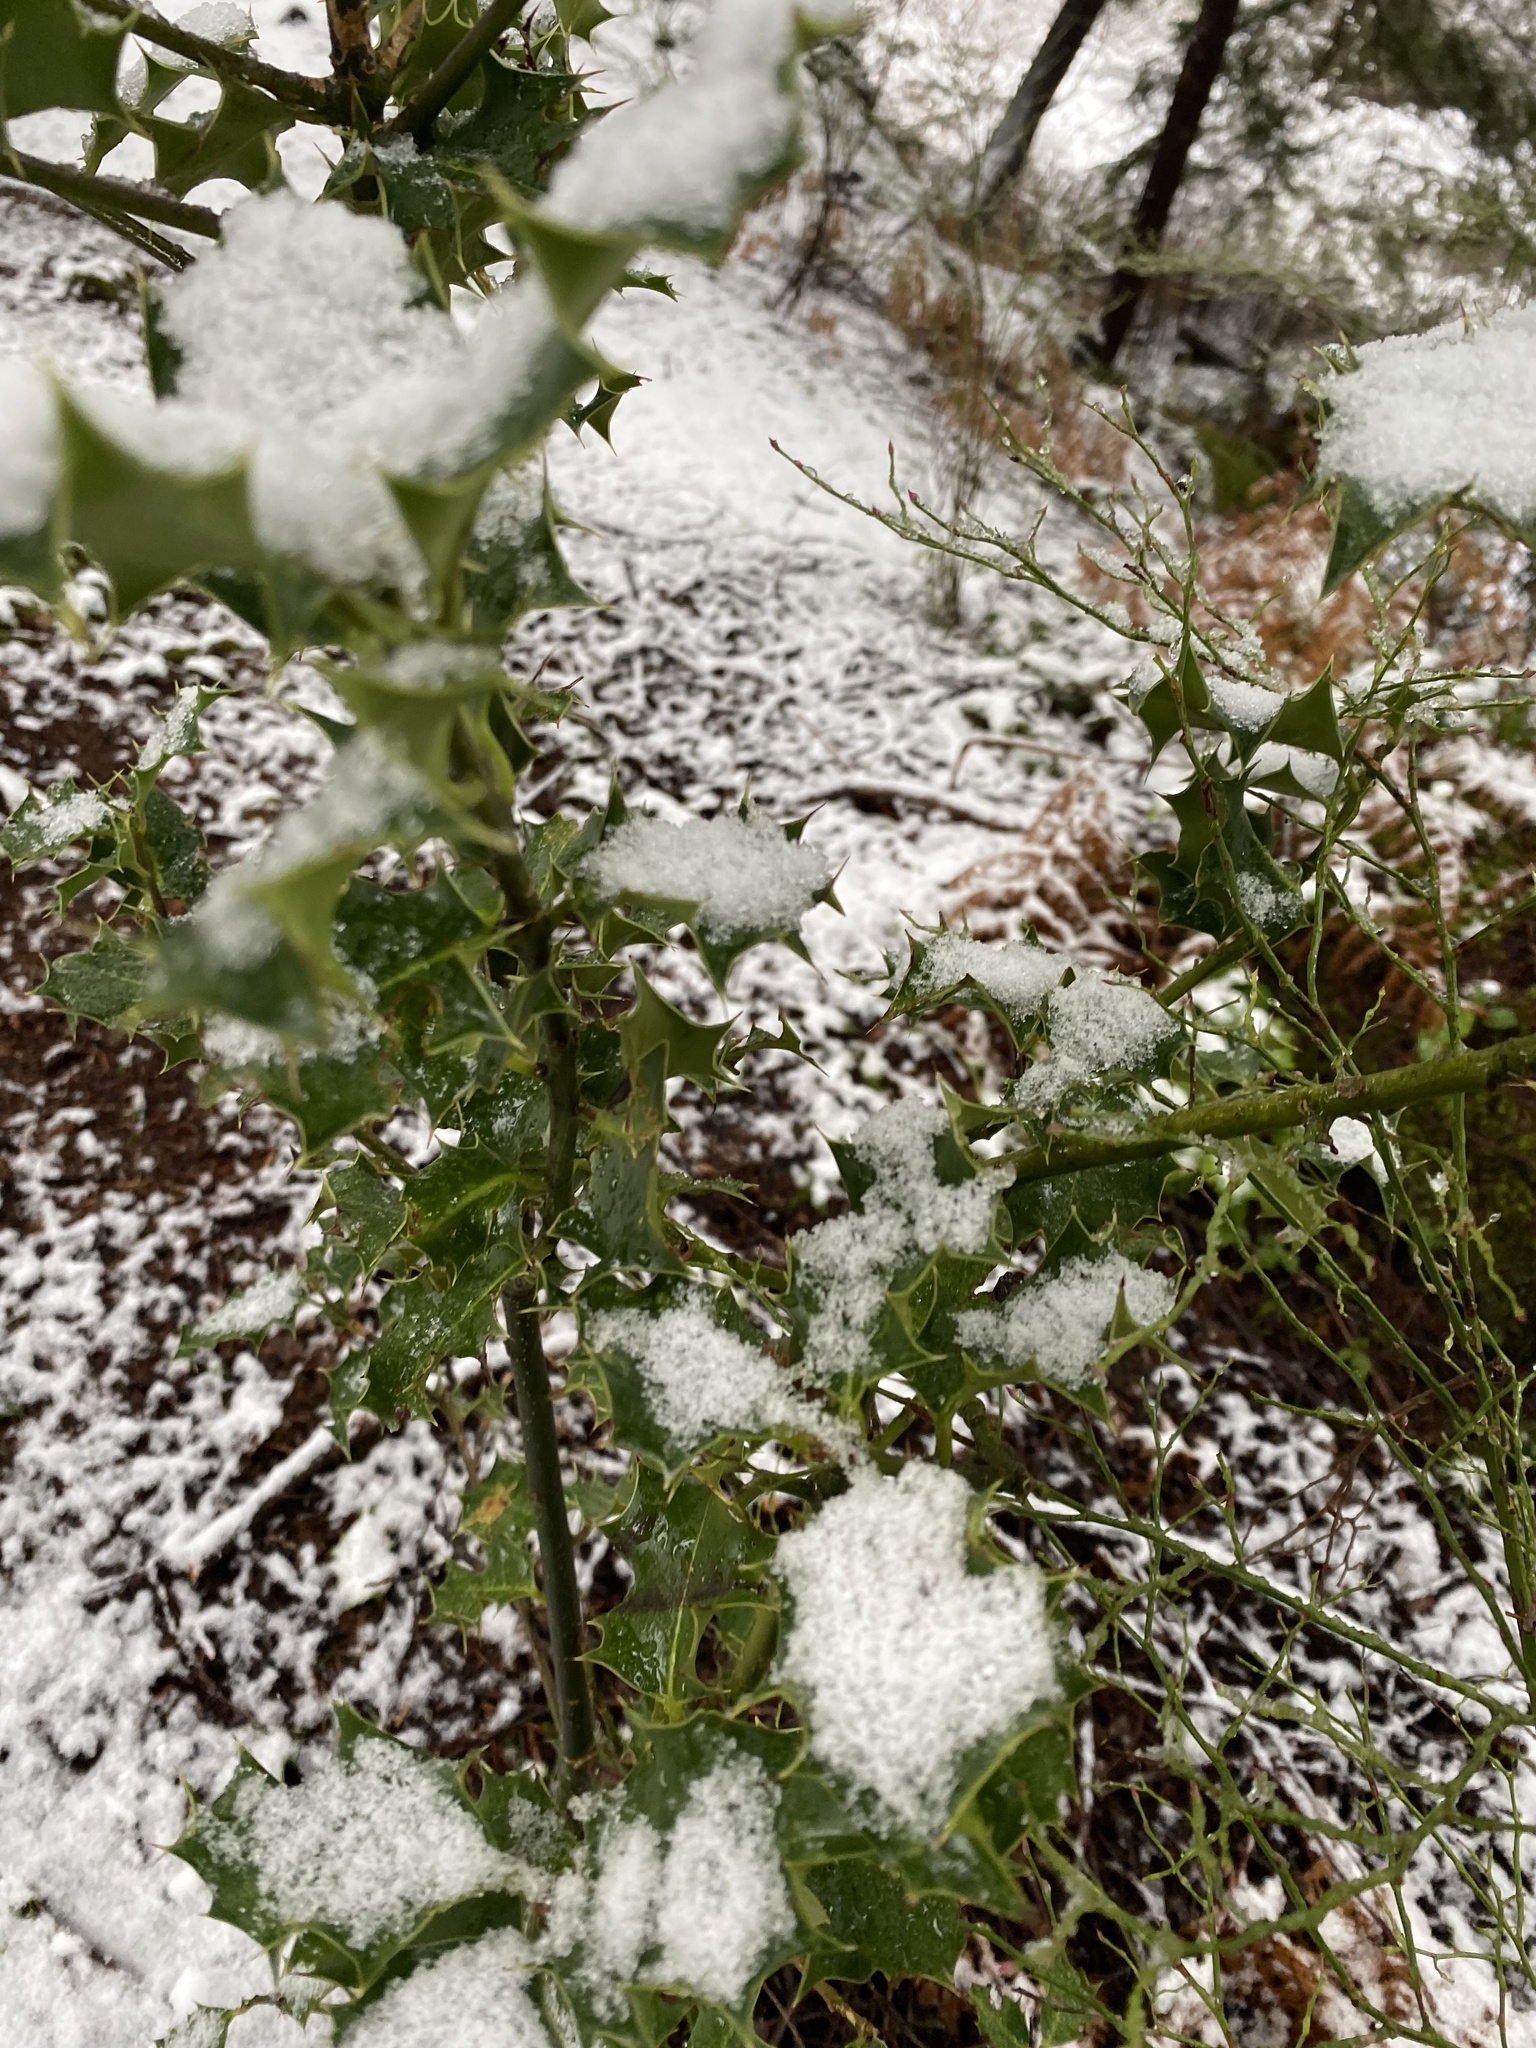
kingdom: Plantae
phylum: Tracheophyta
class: Magnoliopsida
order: Aquifoliales
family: Aquifoliaceae
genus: Ilex
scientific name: Ilex aquifolium
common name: English holly
